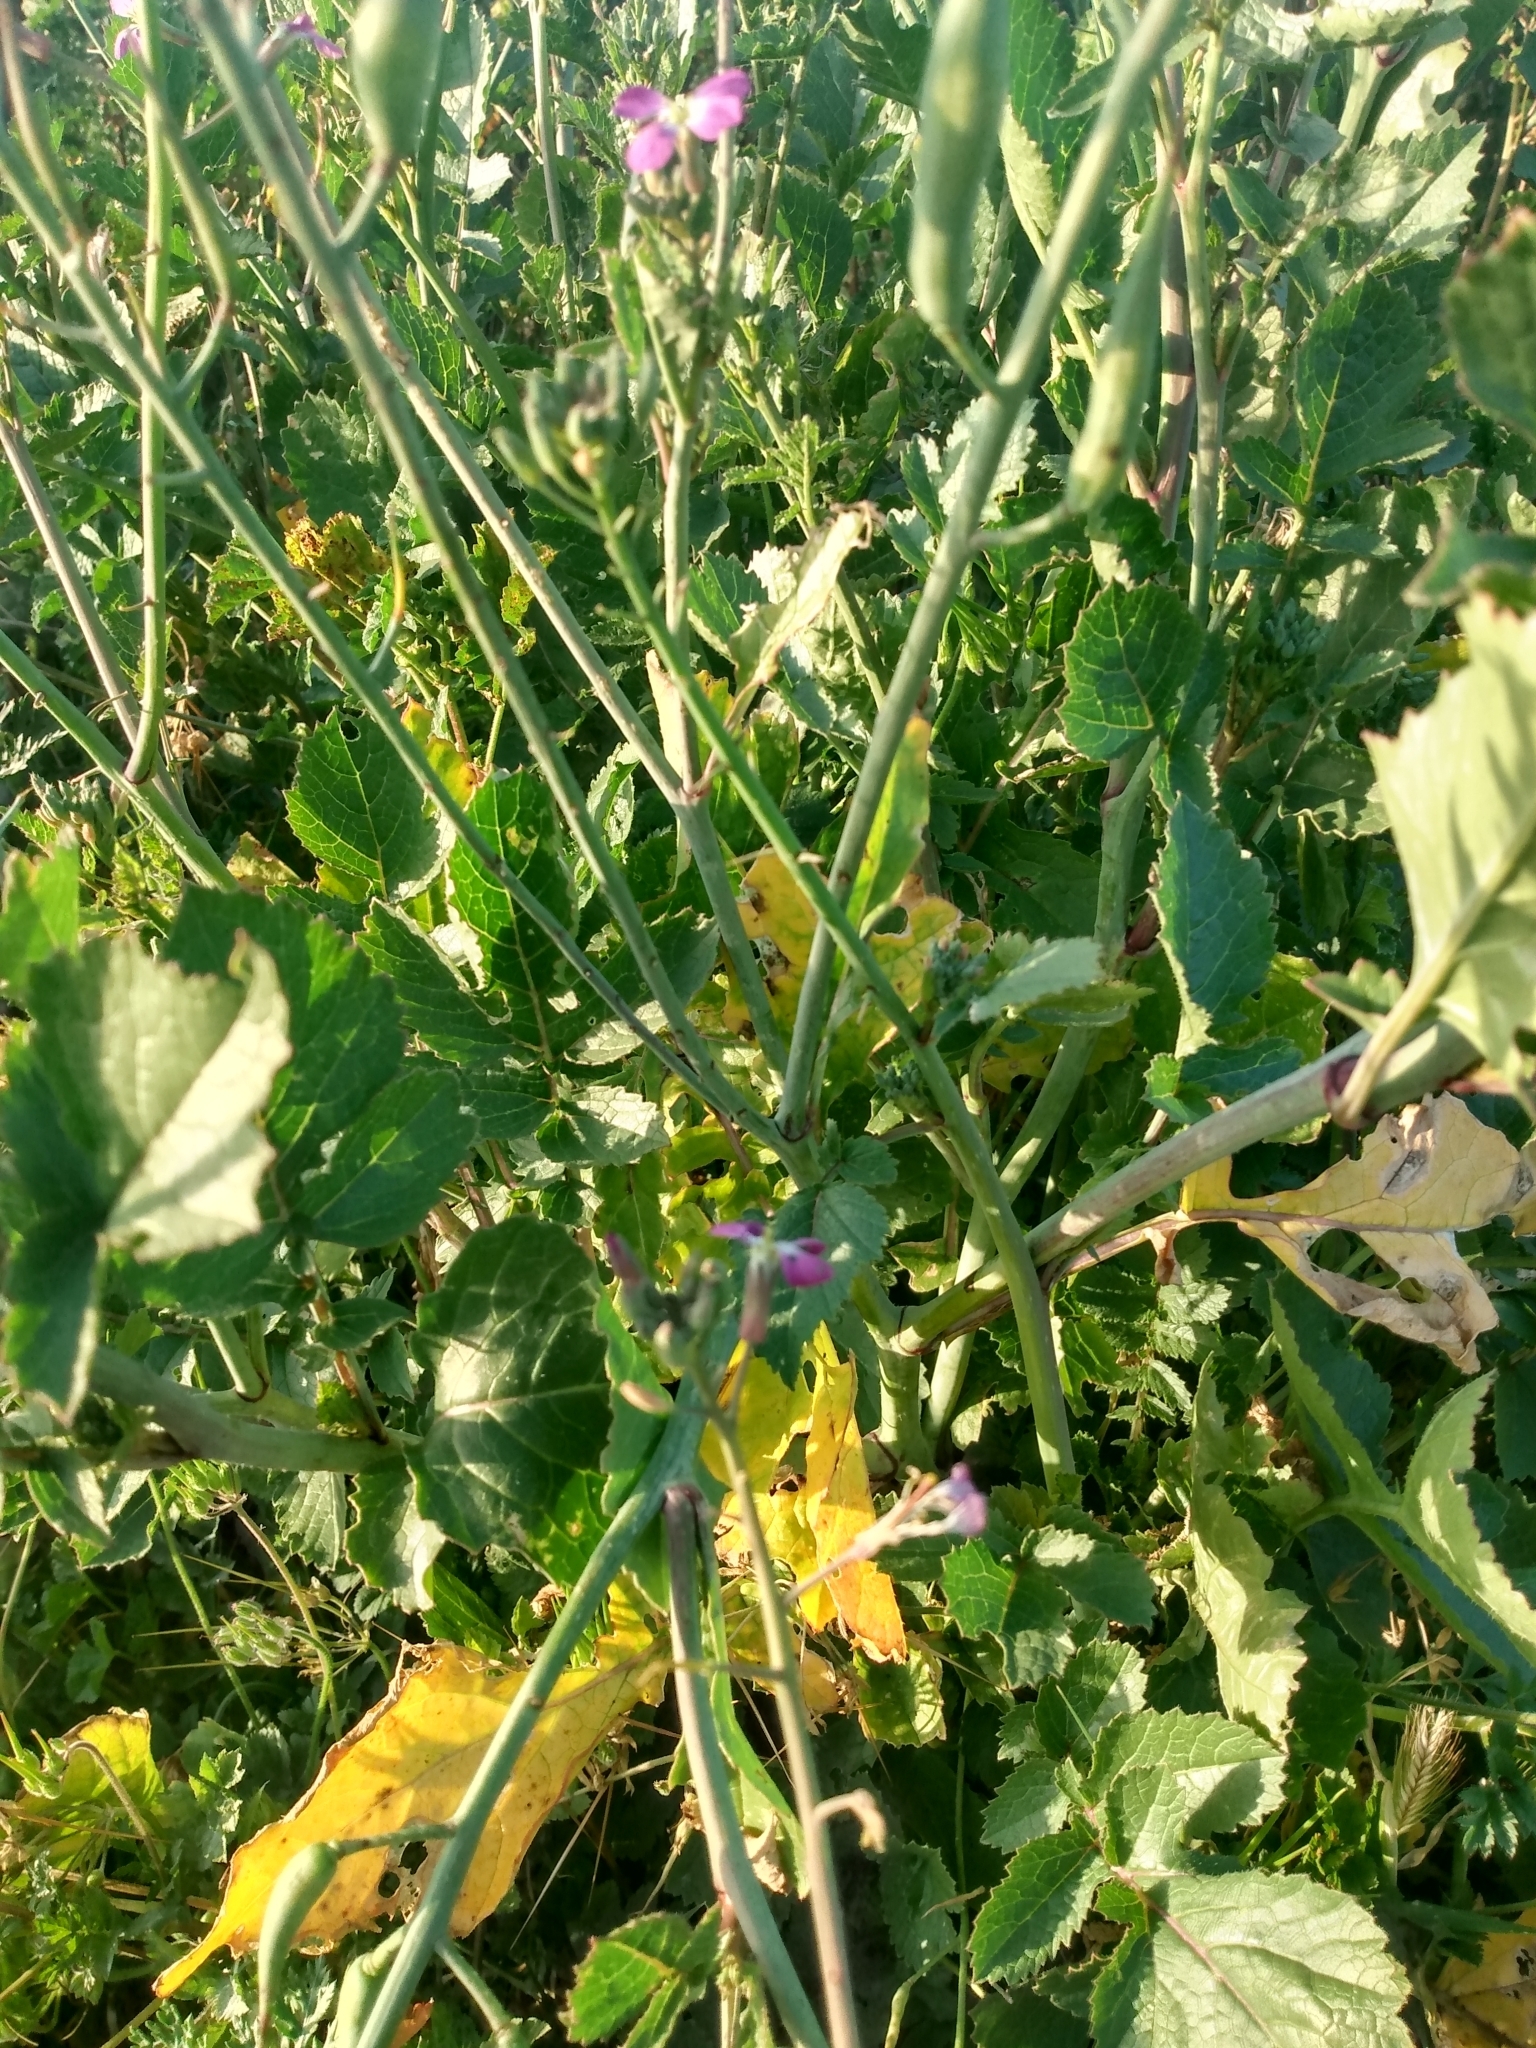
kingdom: Plantae
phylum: Tracheophyta
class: Magnoliopsida
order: Brassicales
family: Brassicaceae
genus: Raphanus
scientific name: Raphanus sativus
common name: Cultivated radish
